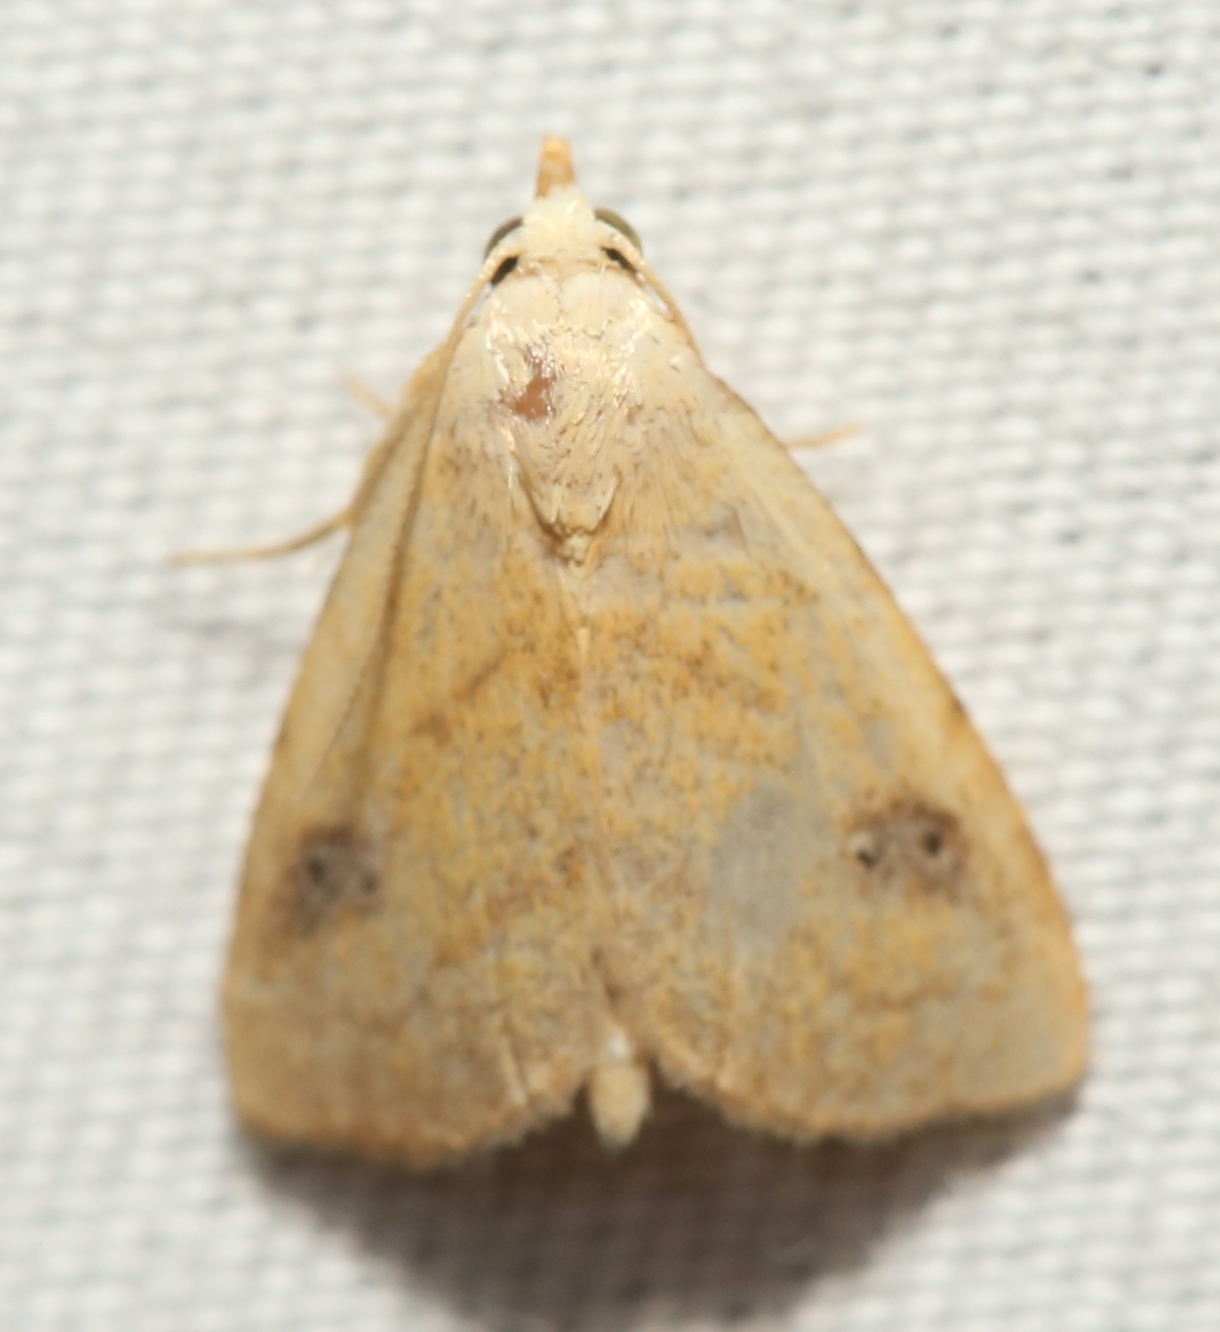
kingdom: Animalia
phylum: Arthropoda
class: Insecta
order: Lepidoptera
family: Erebidae
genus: Rivula
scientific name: Rivula propinqualis
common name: Spotted grass moth
